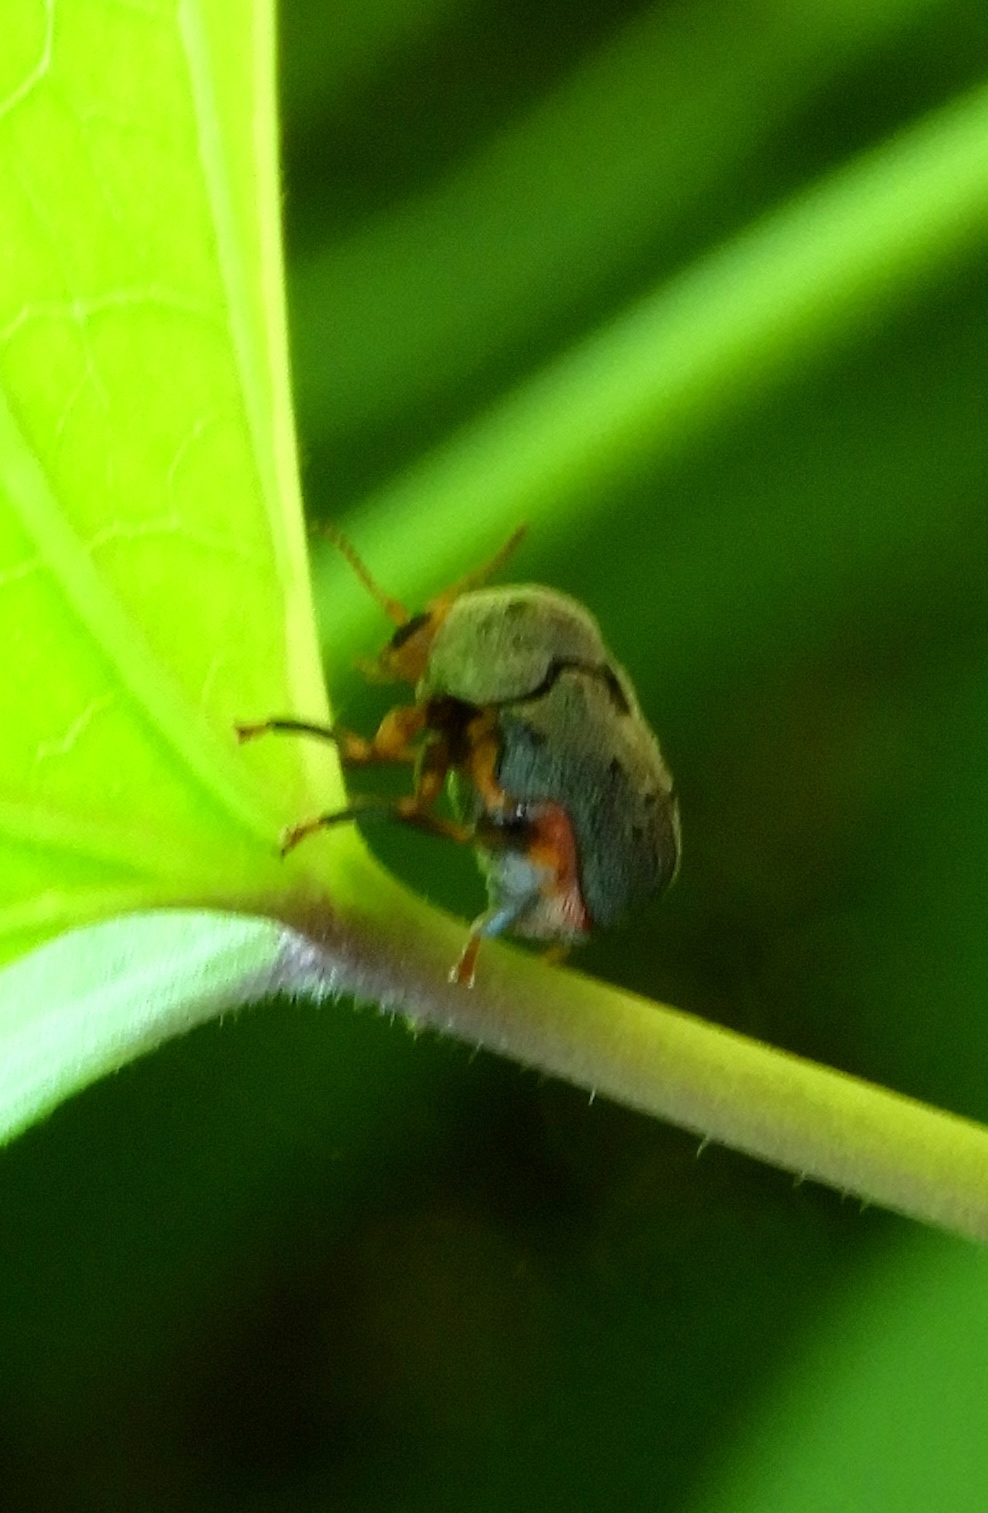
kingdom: Animalia
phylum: Arthropoda
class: Insecta
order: Coleoptera
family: Chrysomelidae
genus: Chlamisus
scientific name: Chlamisus maculipes
